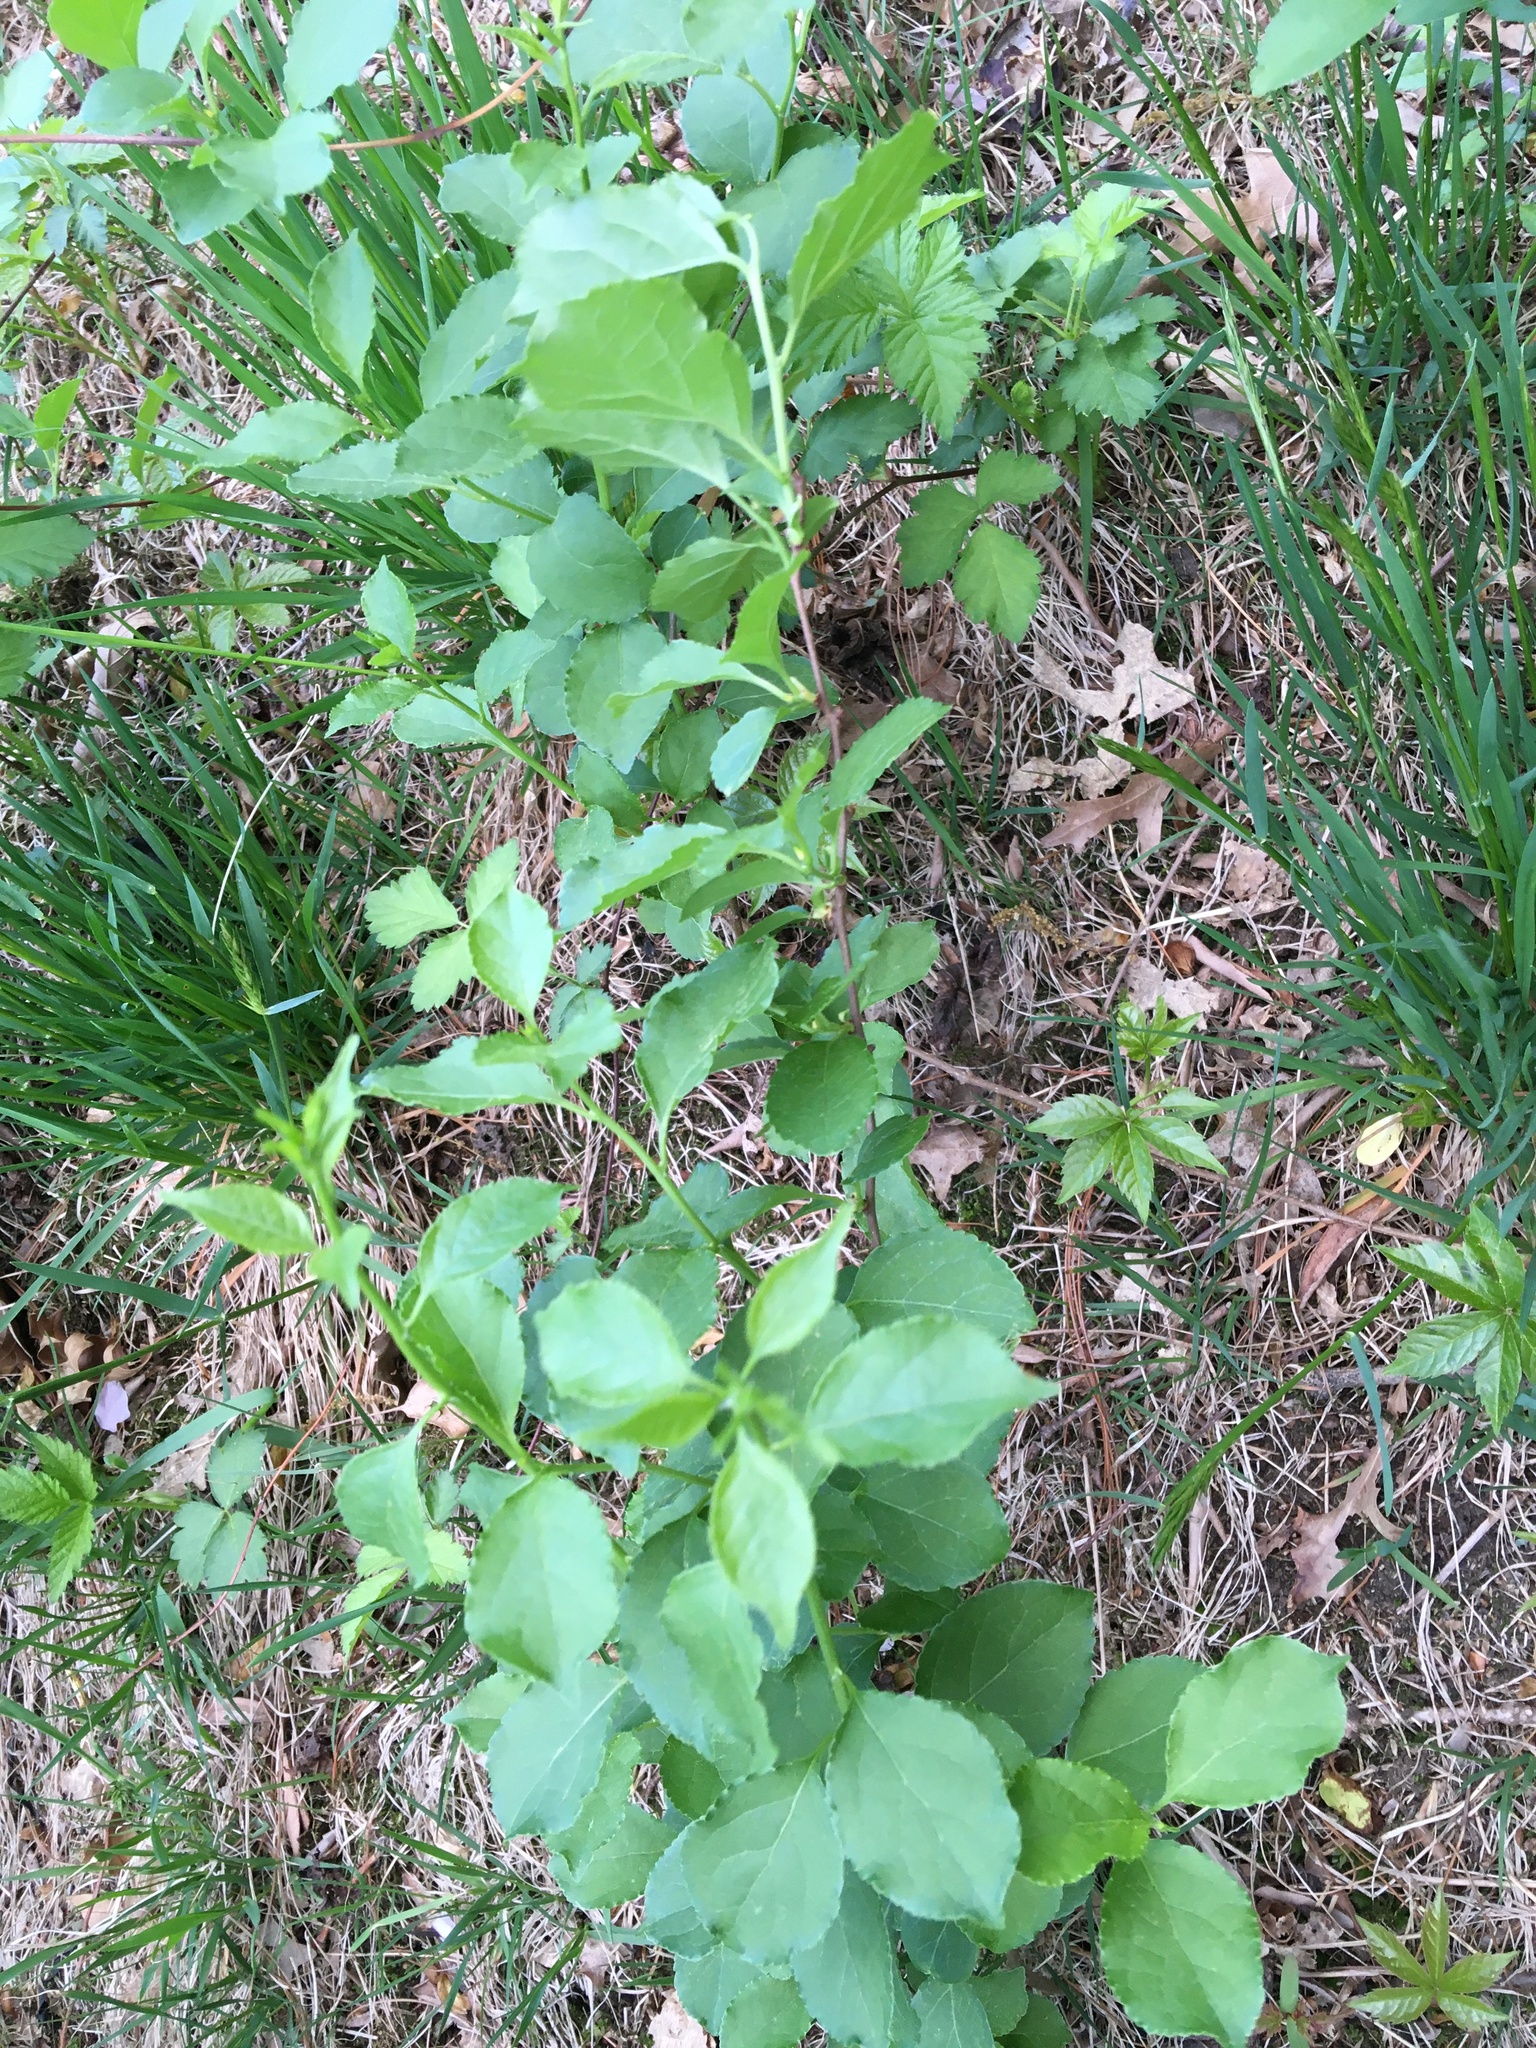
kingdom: Plantae
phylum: Tracheophyta
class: Magnoliopsida
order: Celastrales
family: Celastraceae
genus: Celastrus
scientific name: Celastrus orbiculatus
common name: Oriental bittersweet
